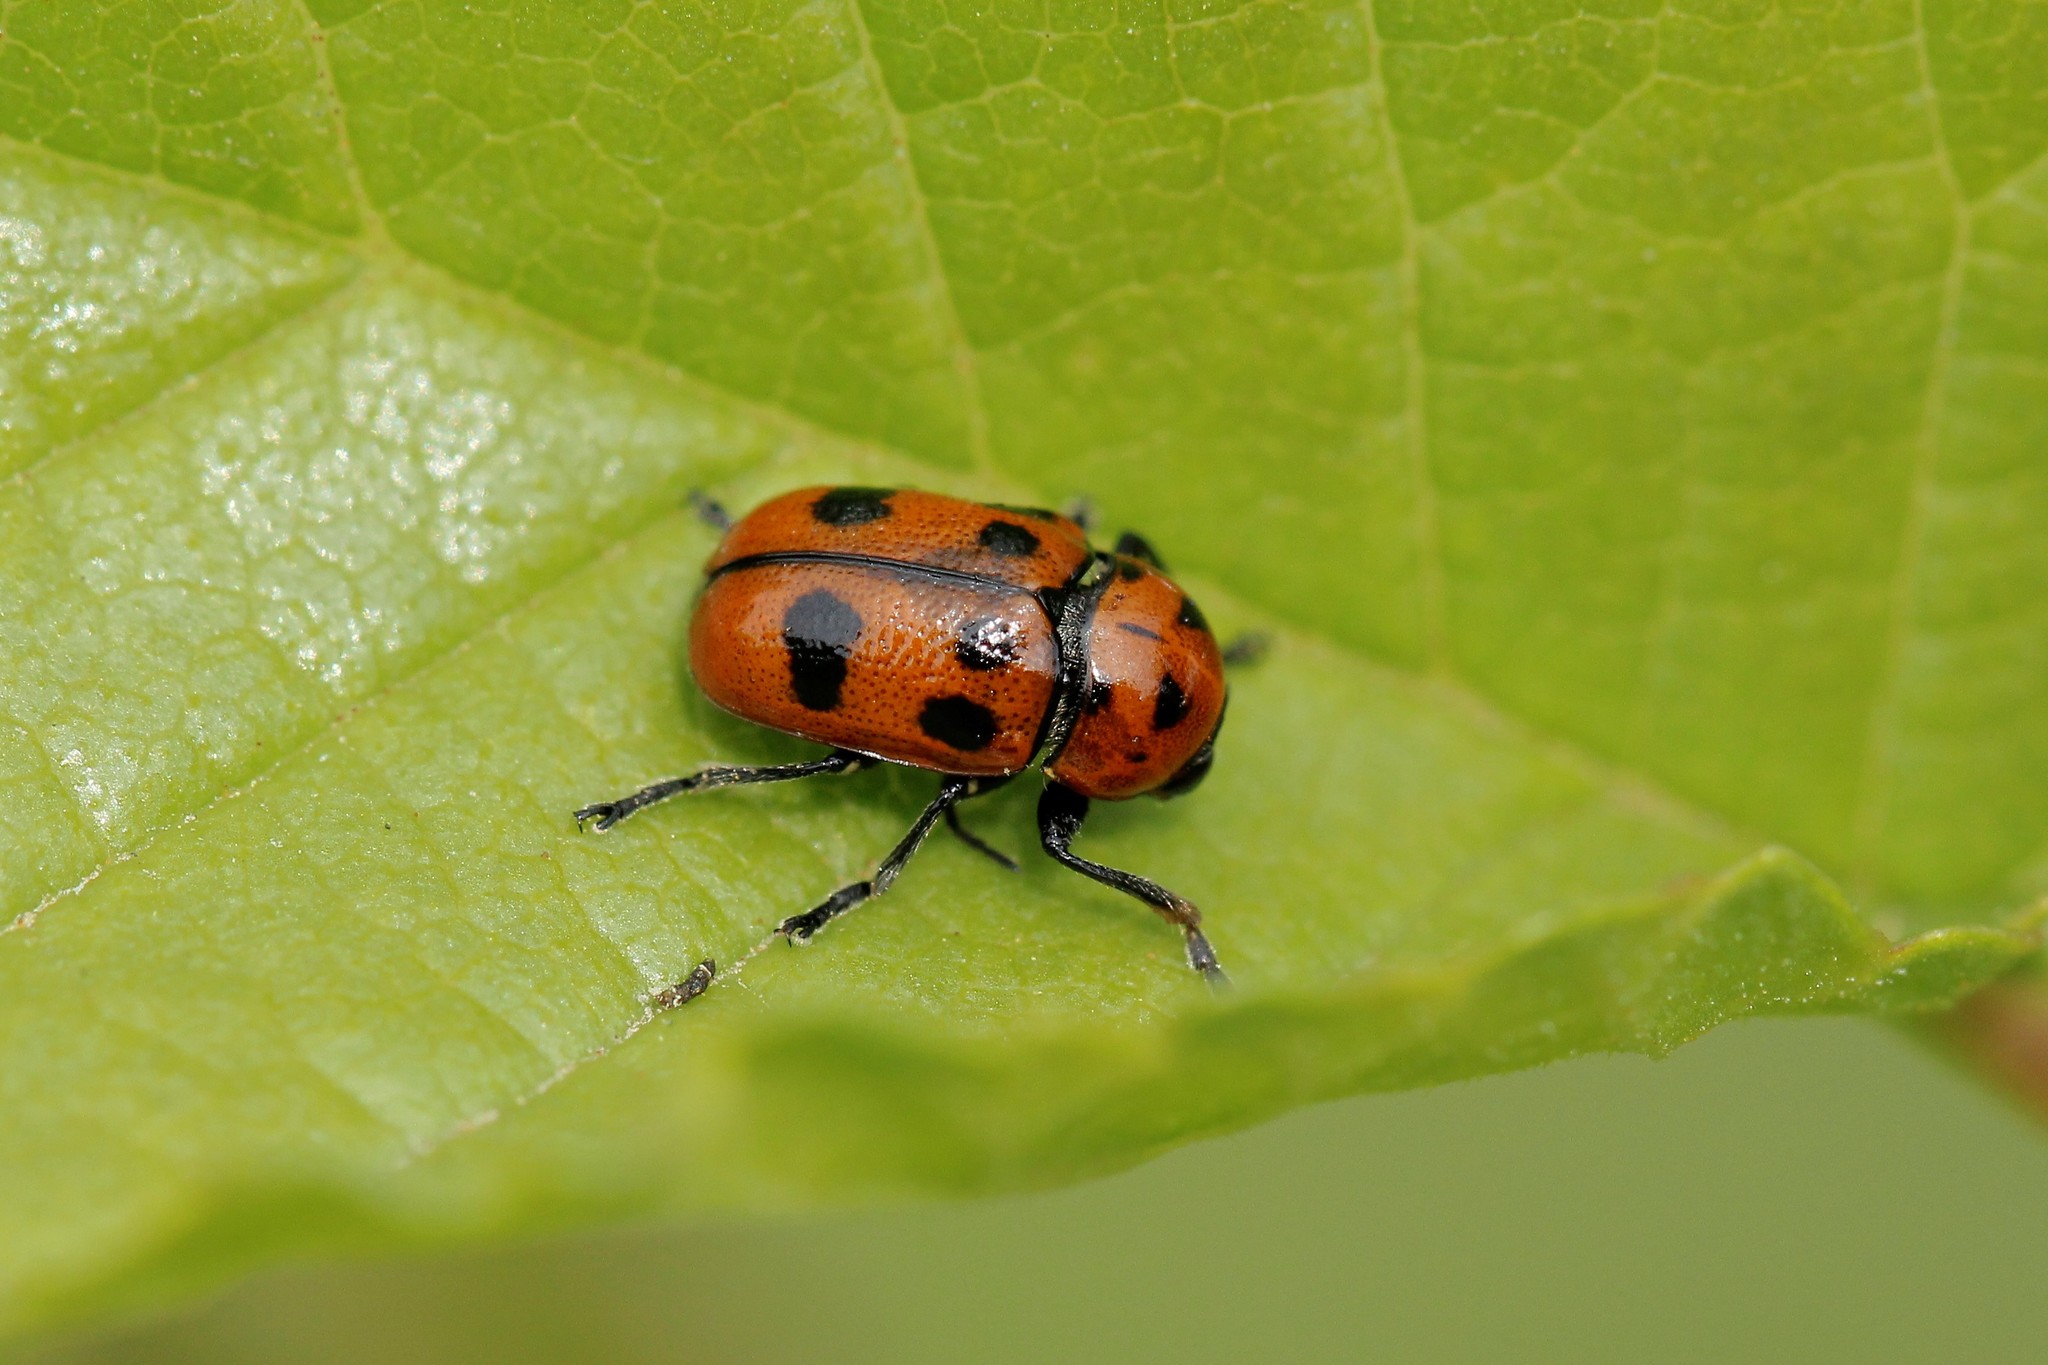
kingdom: Animalia
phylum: Arthropoda
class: Insecta
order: Coleoptera
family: Chrysomelidae
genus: Cryptocephalus
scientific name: Cryptocephalus laevicollis
